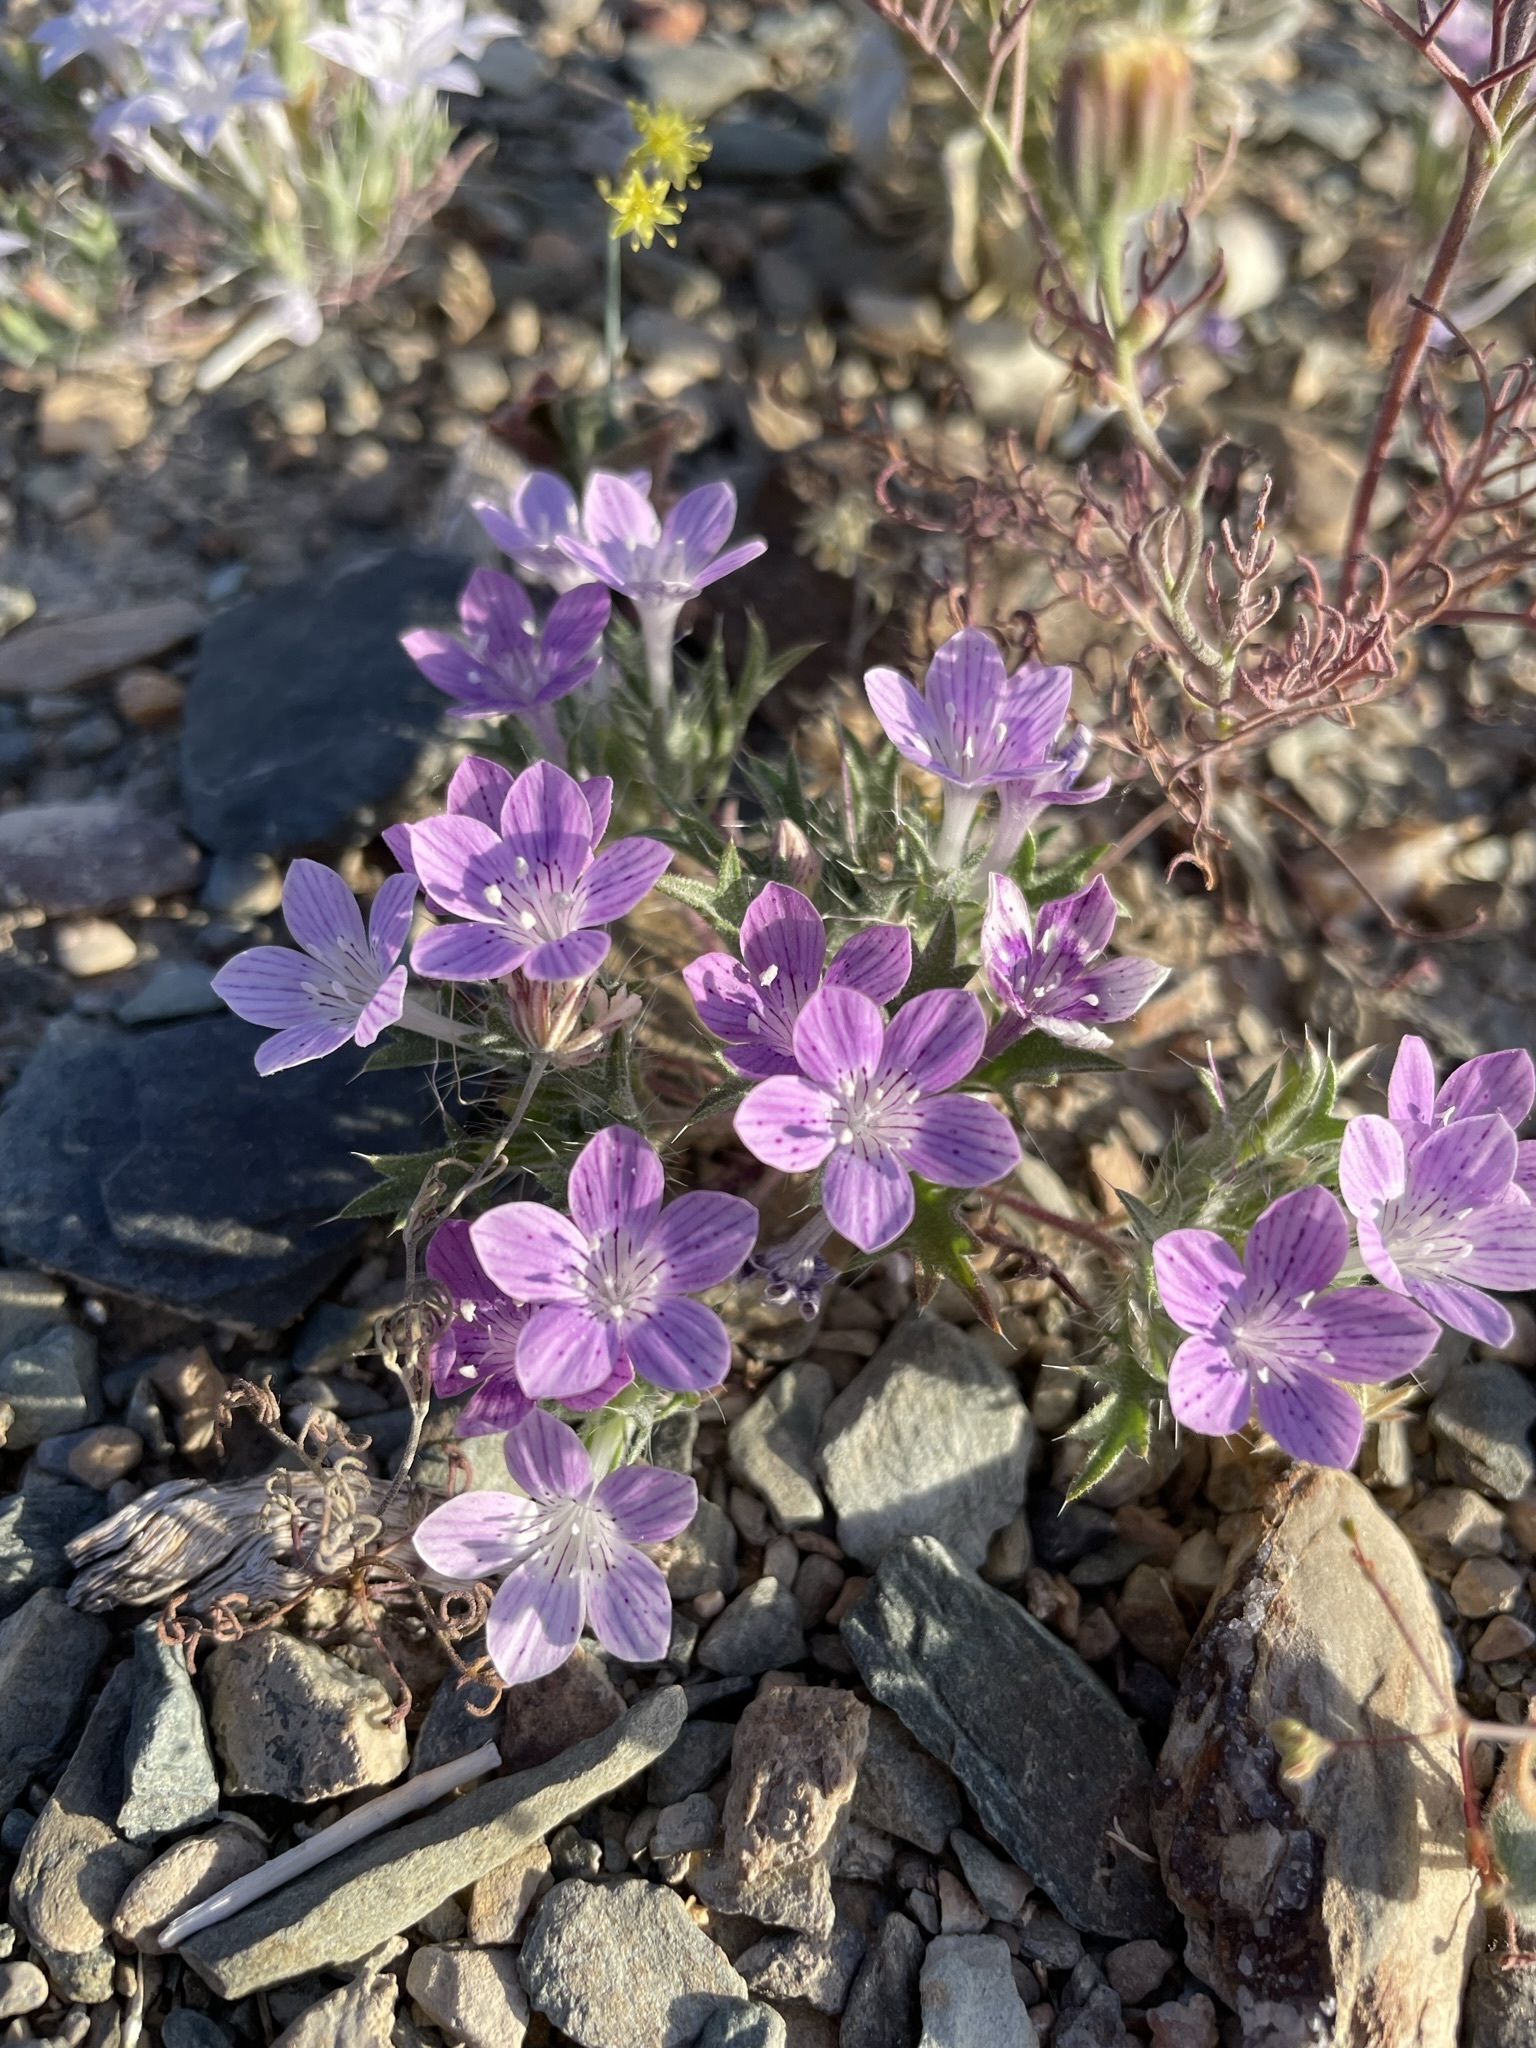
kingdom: Plantae
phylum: Tracheophyta
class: Magnoliopsida
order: Ericales
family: Polemoniaceae
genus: Langloisia
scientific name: Langloisia setosissima
